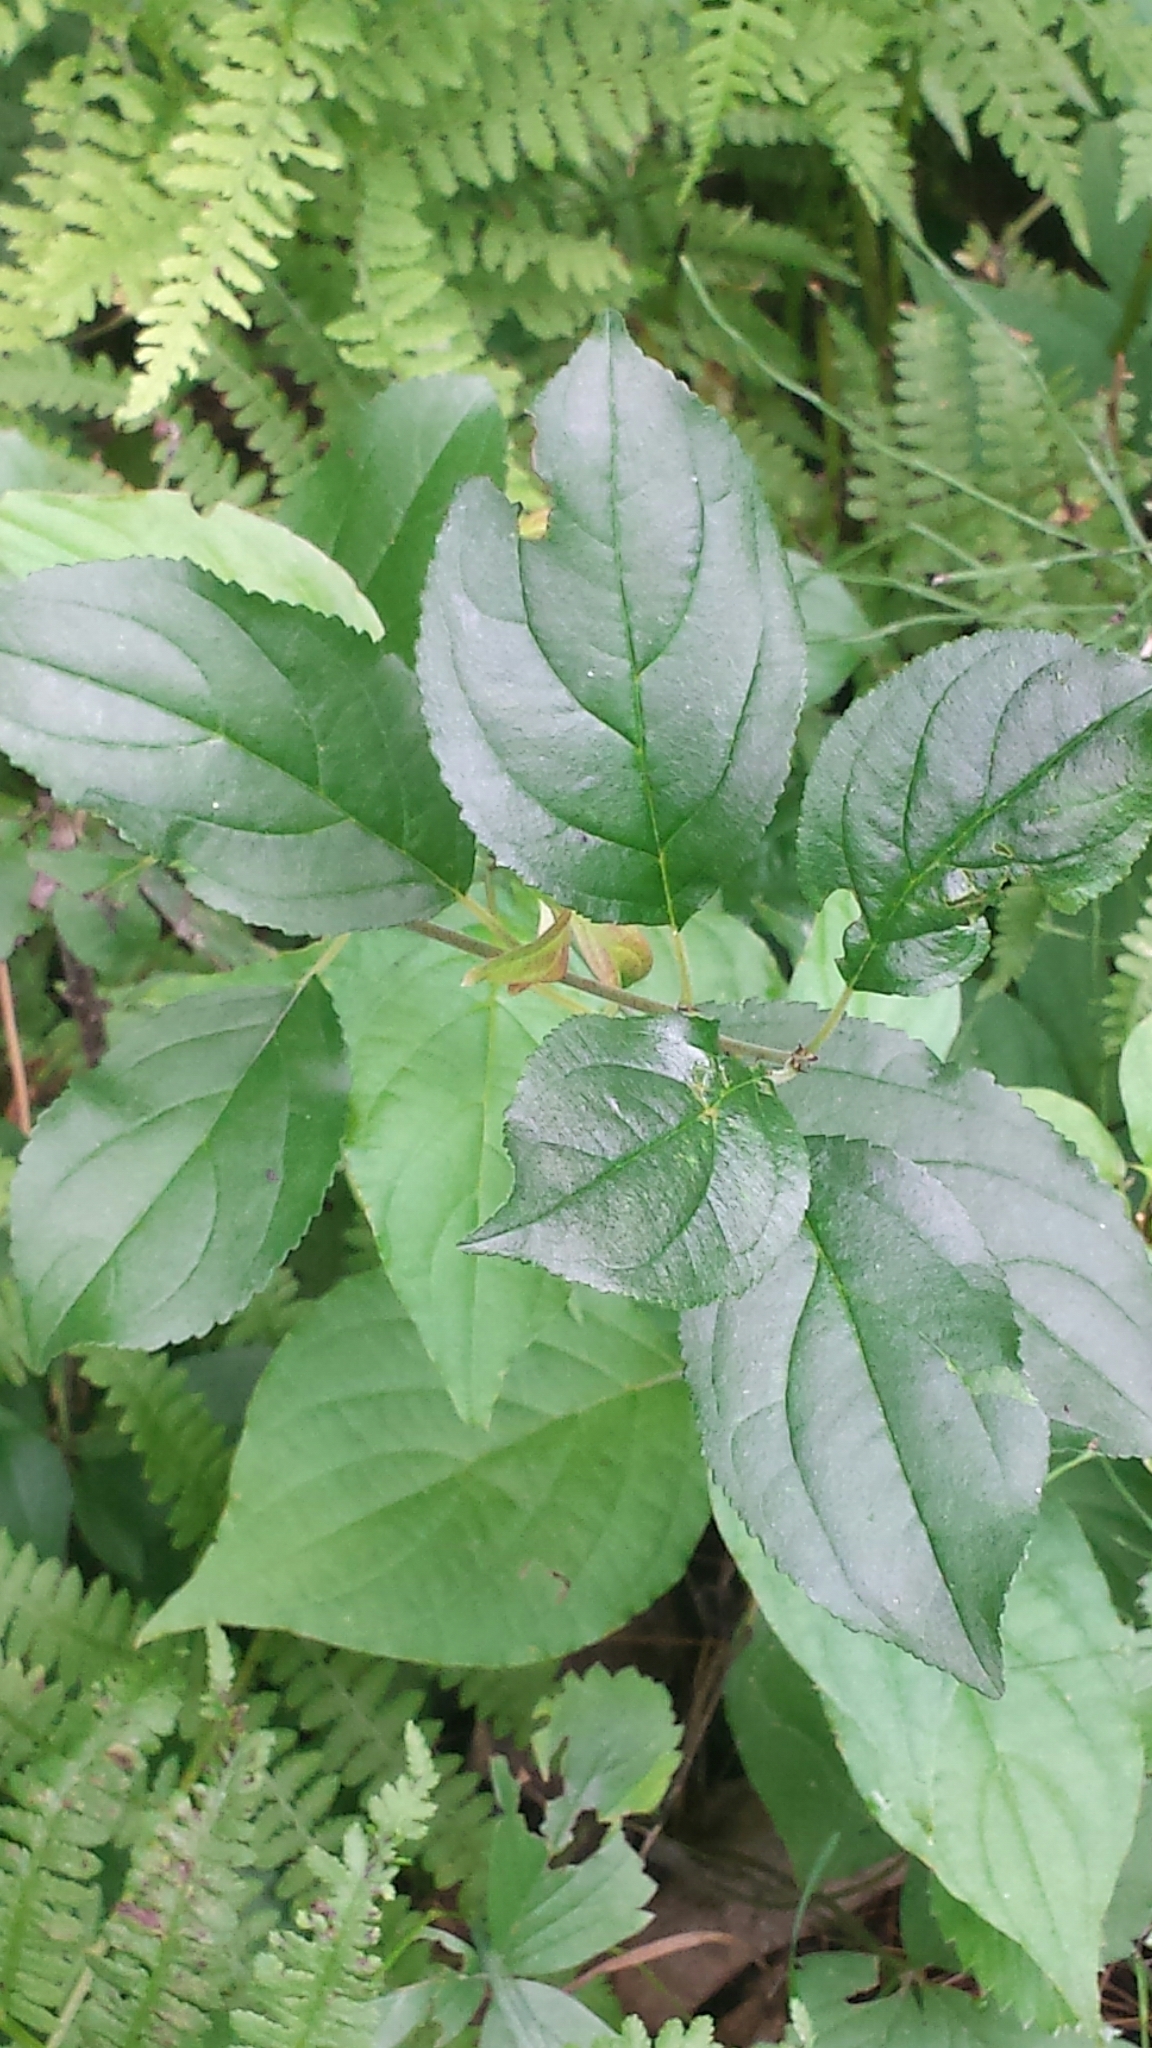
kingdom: Plantae
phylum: Tracheophyta
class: Magnoliopsida
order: Rosales
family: Rhamnaceae
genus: Rhamnus
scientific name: Rhamnus cathartica
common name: Common buckthorn
